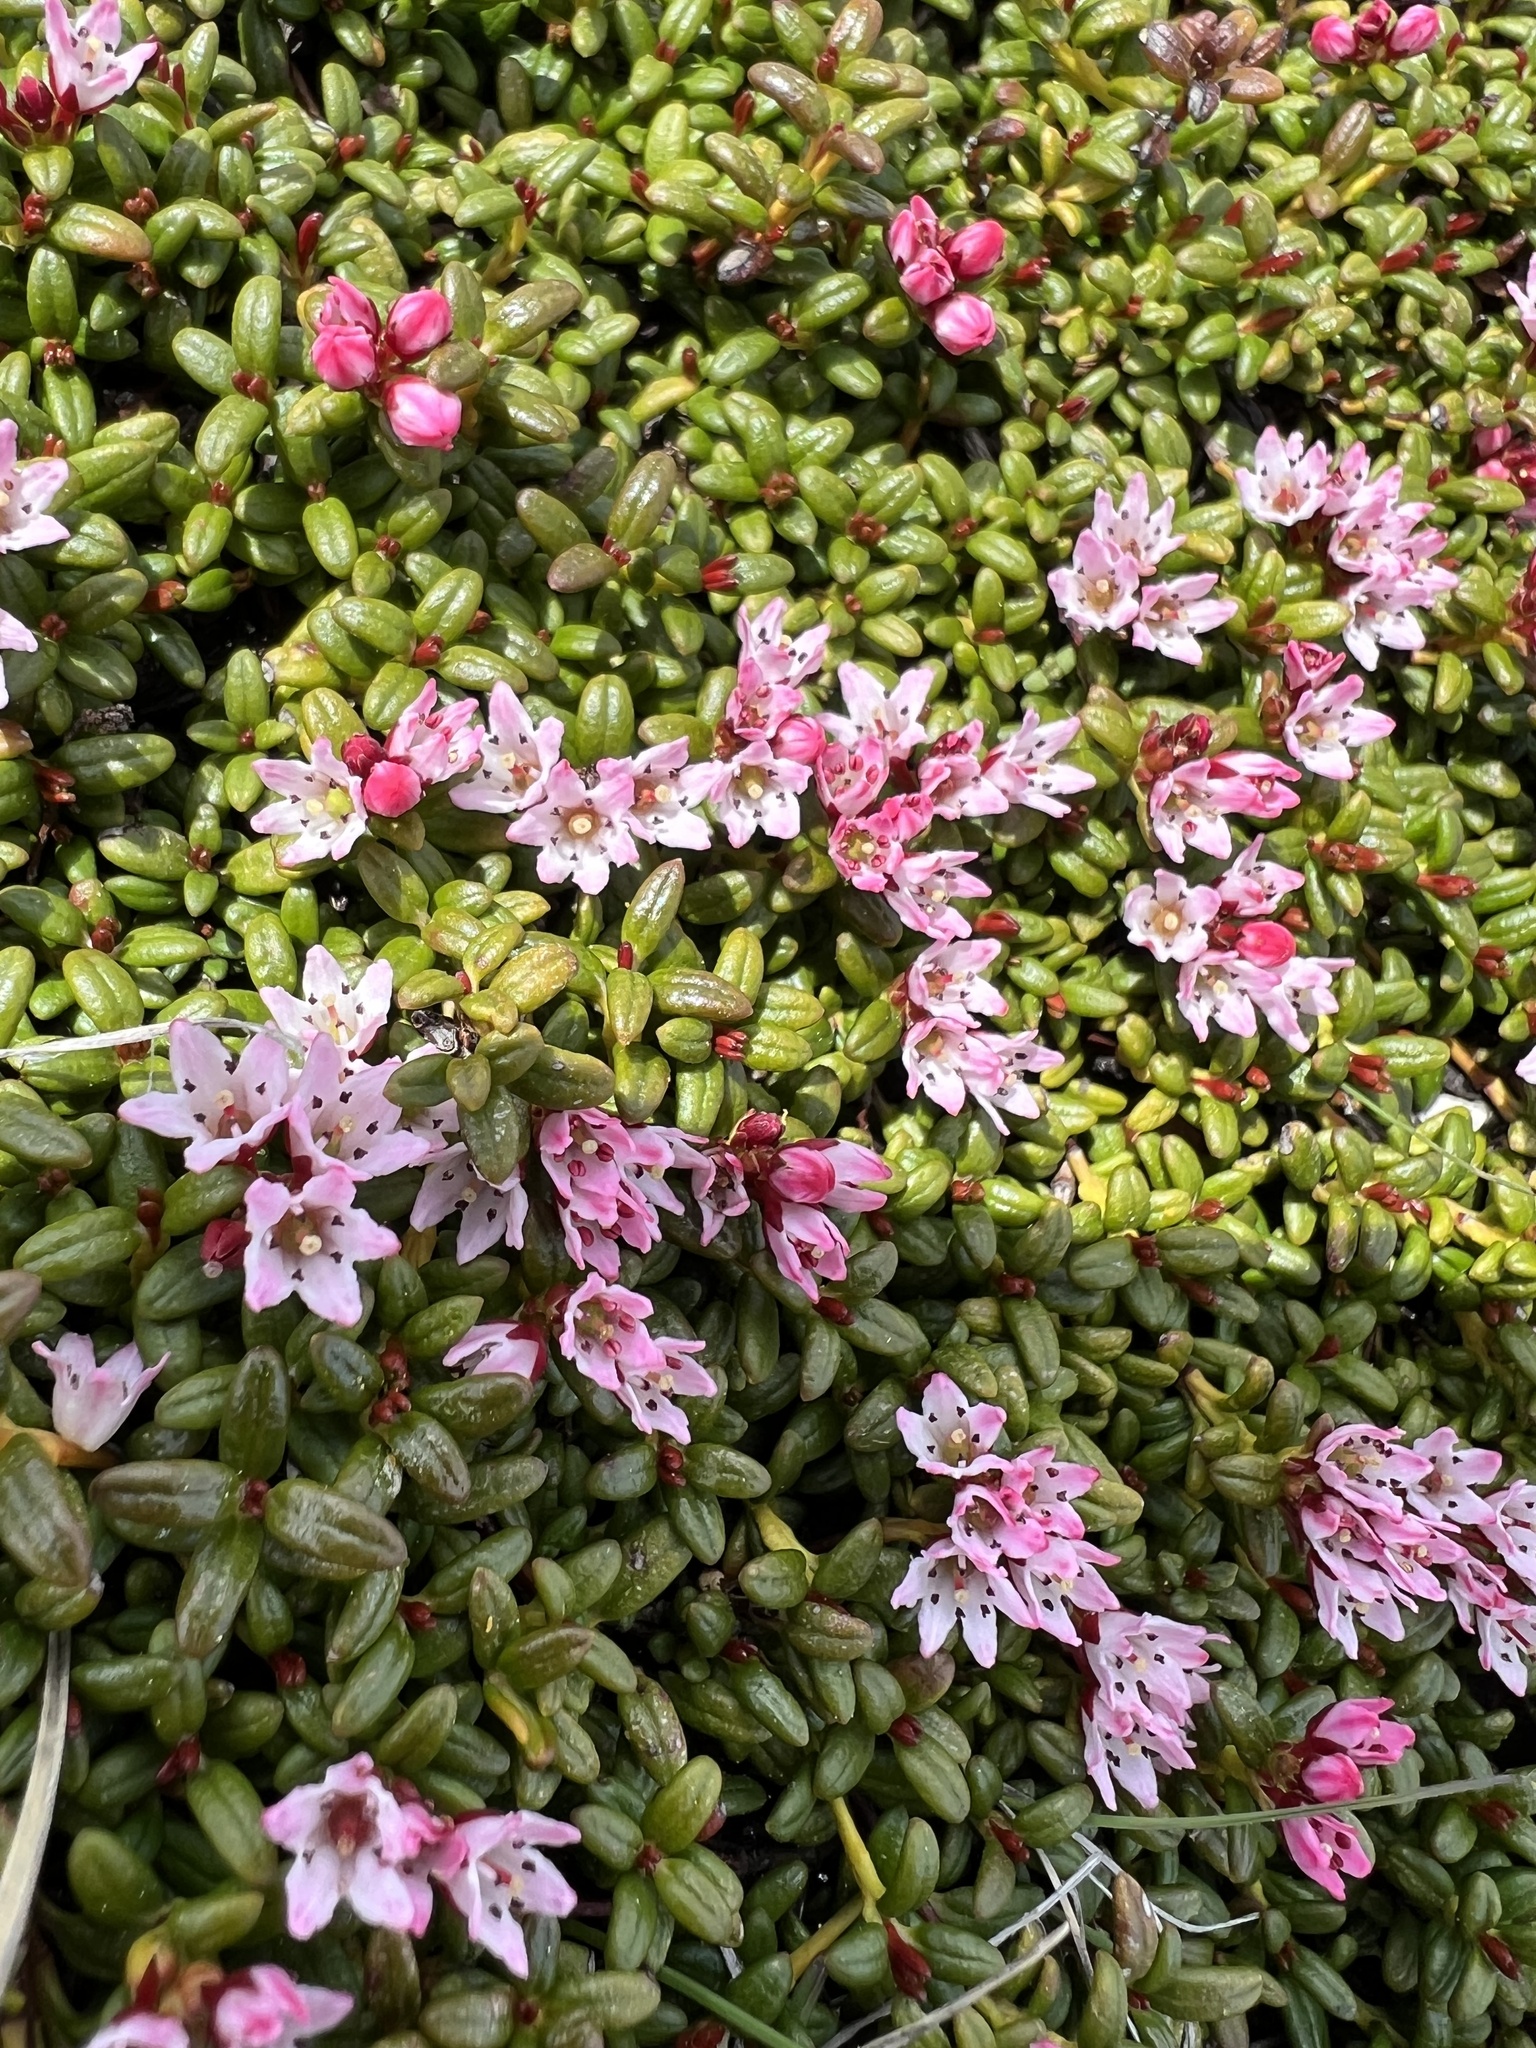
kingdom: Plantae
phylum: Tracheophyta
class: Magnoliopsida
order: Ericales
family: Ericaceae
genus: Kalmia
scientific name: Kalmia procumbens
